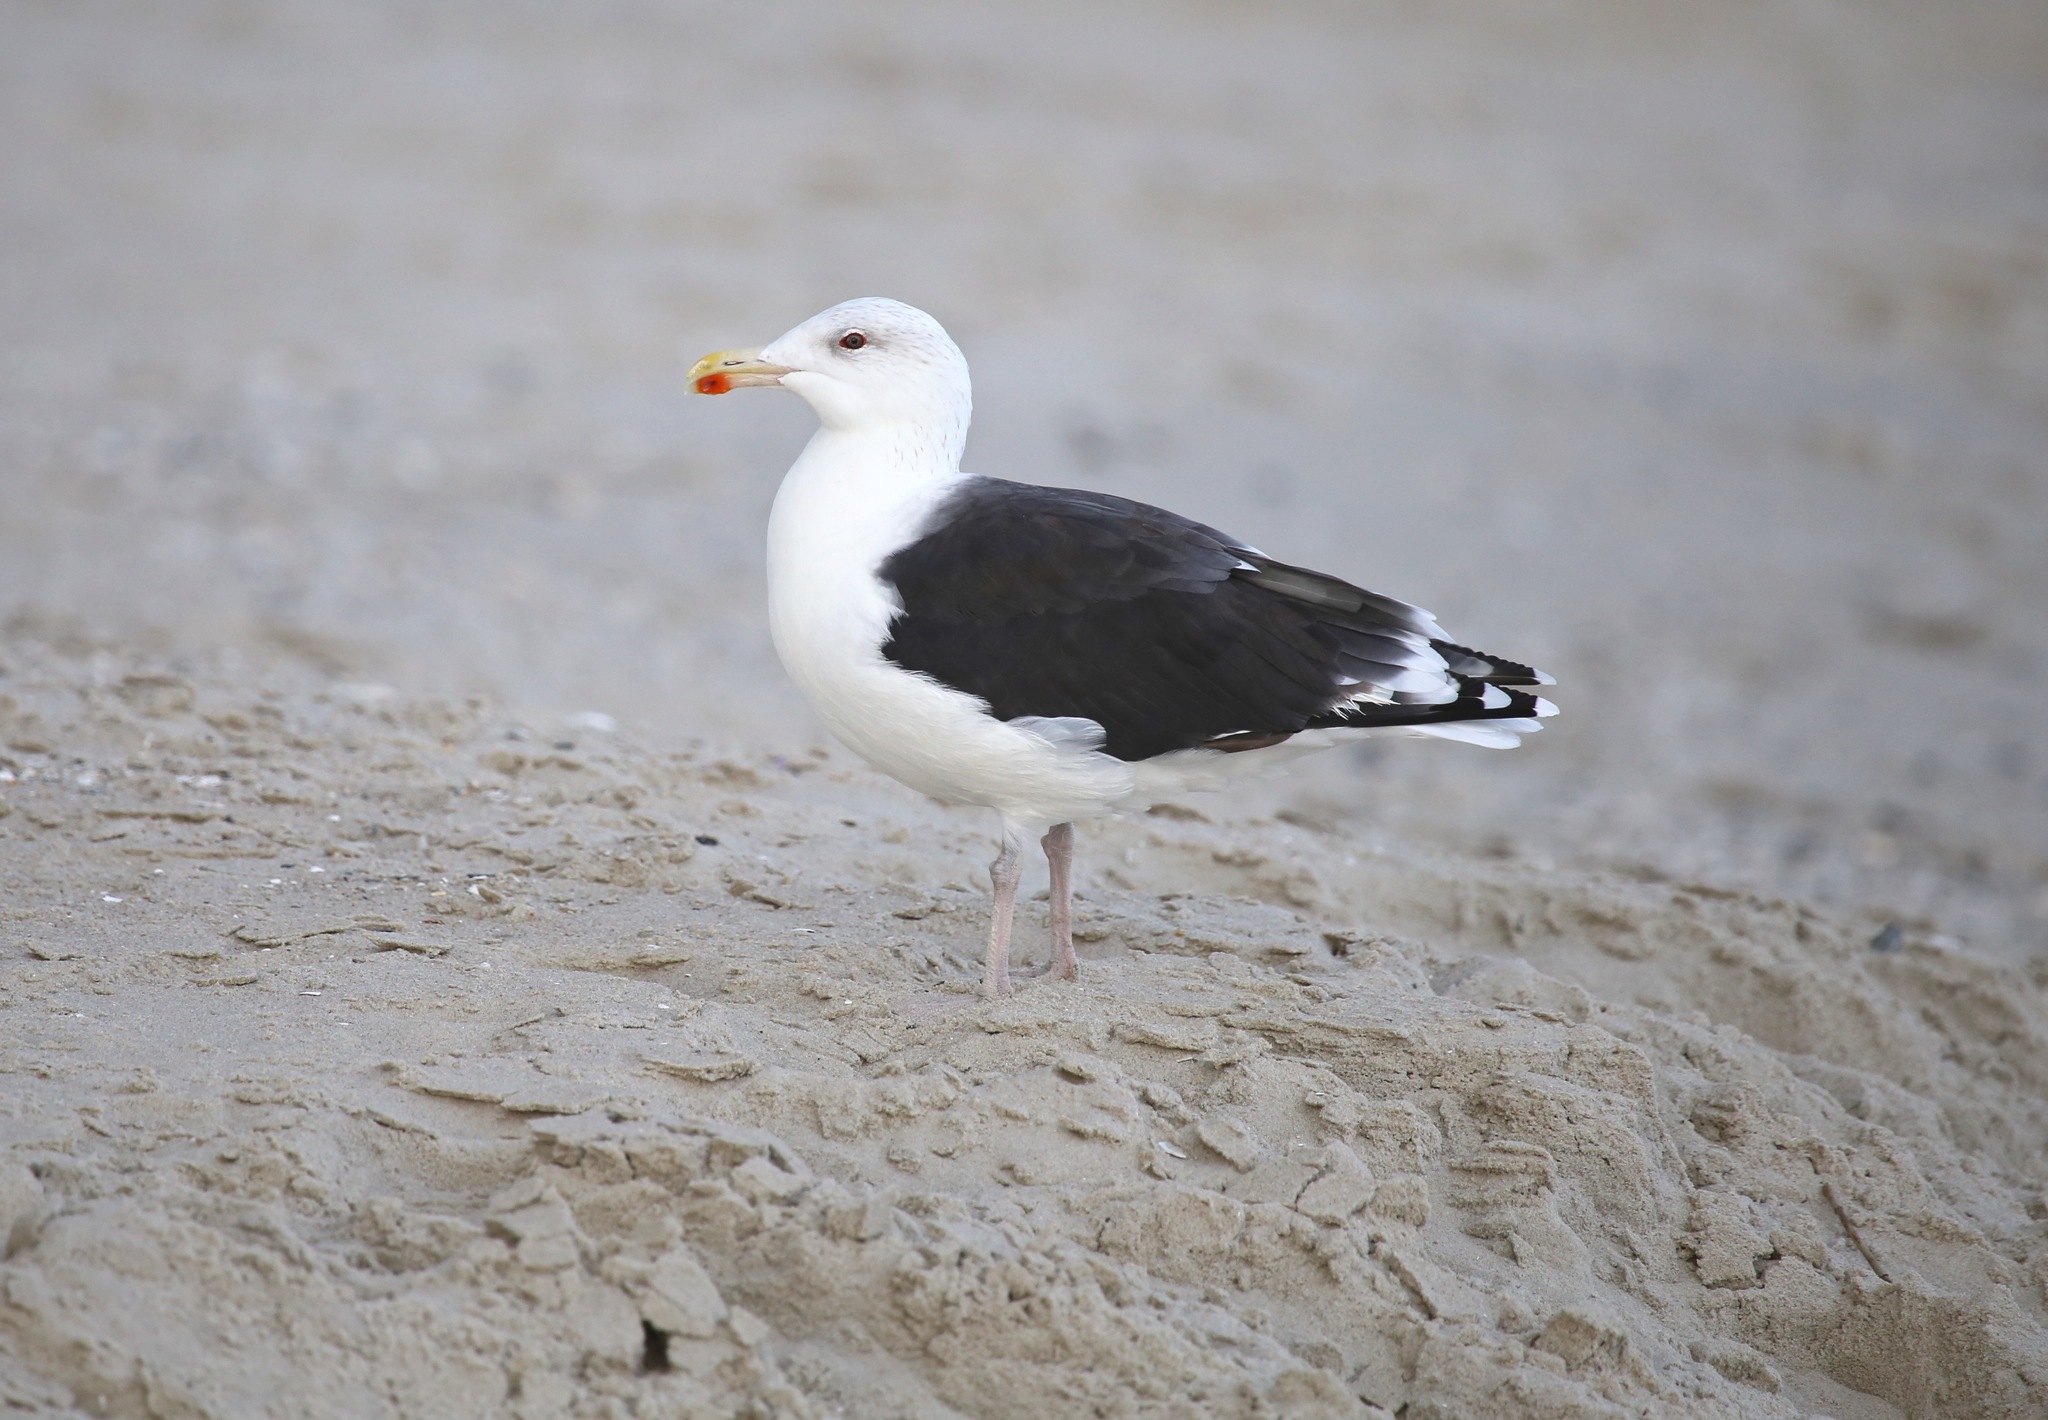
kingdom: Animalia
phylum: Chordata
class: Aves
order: Charadriiformes
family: Laridae
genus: Larus
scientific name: Larus marinus
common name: Great black-backed gull
